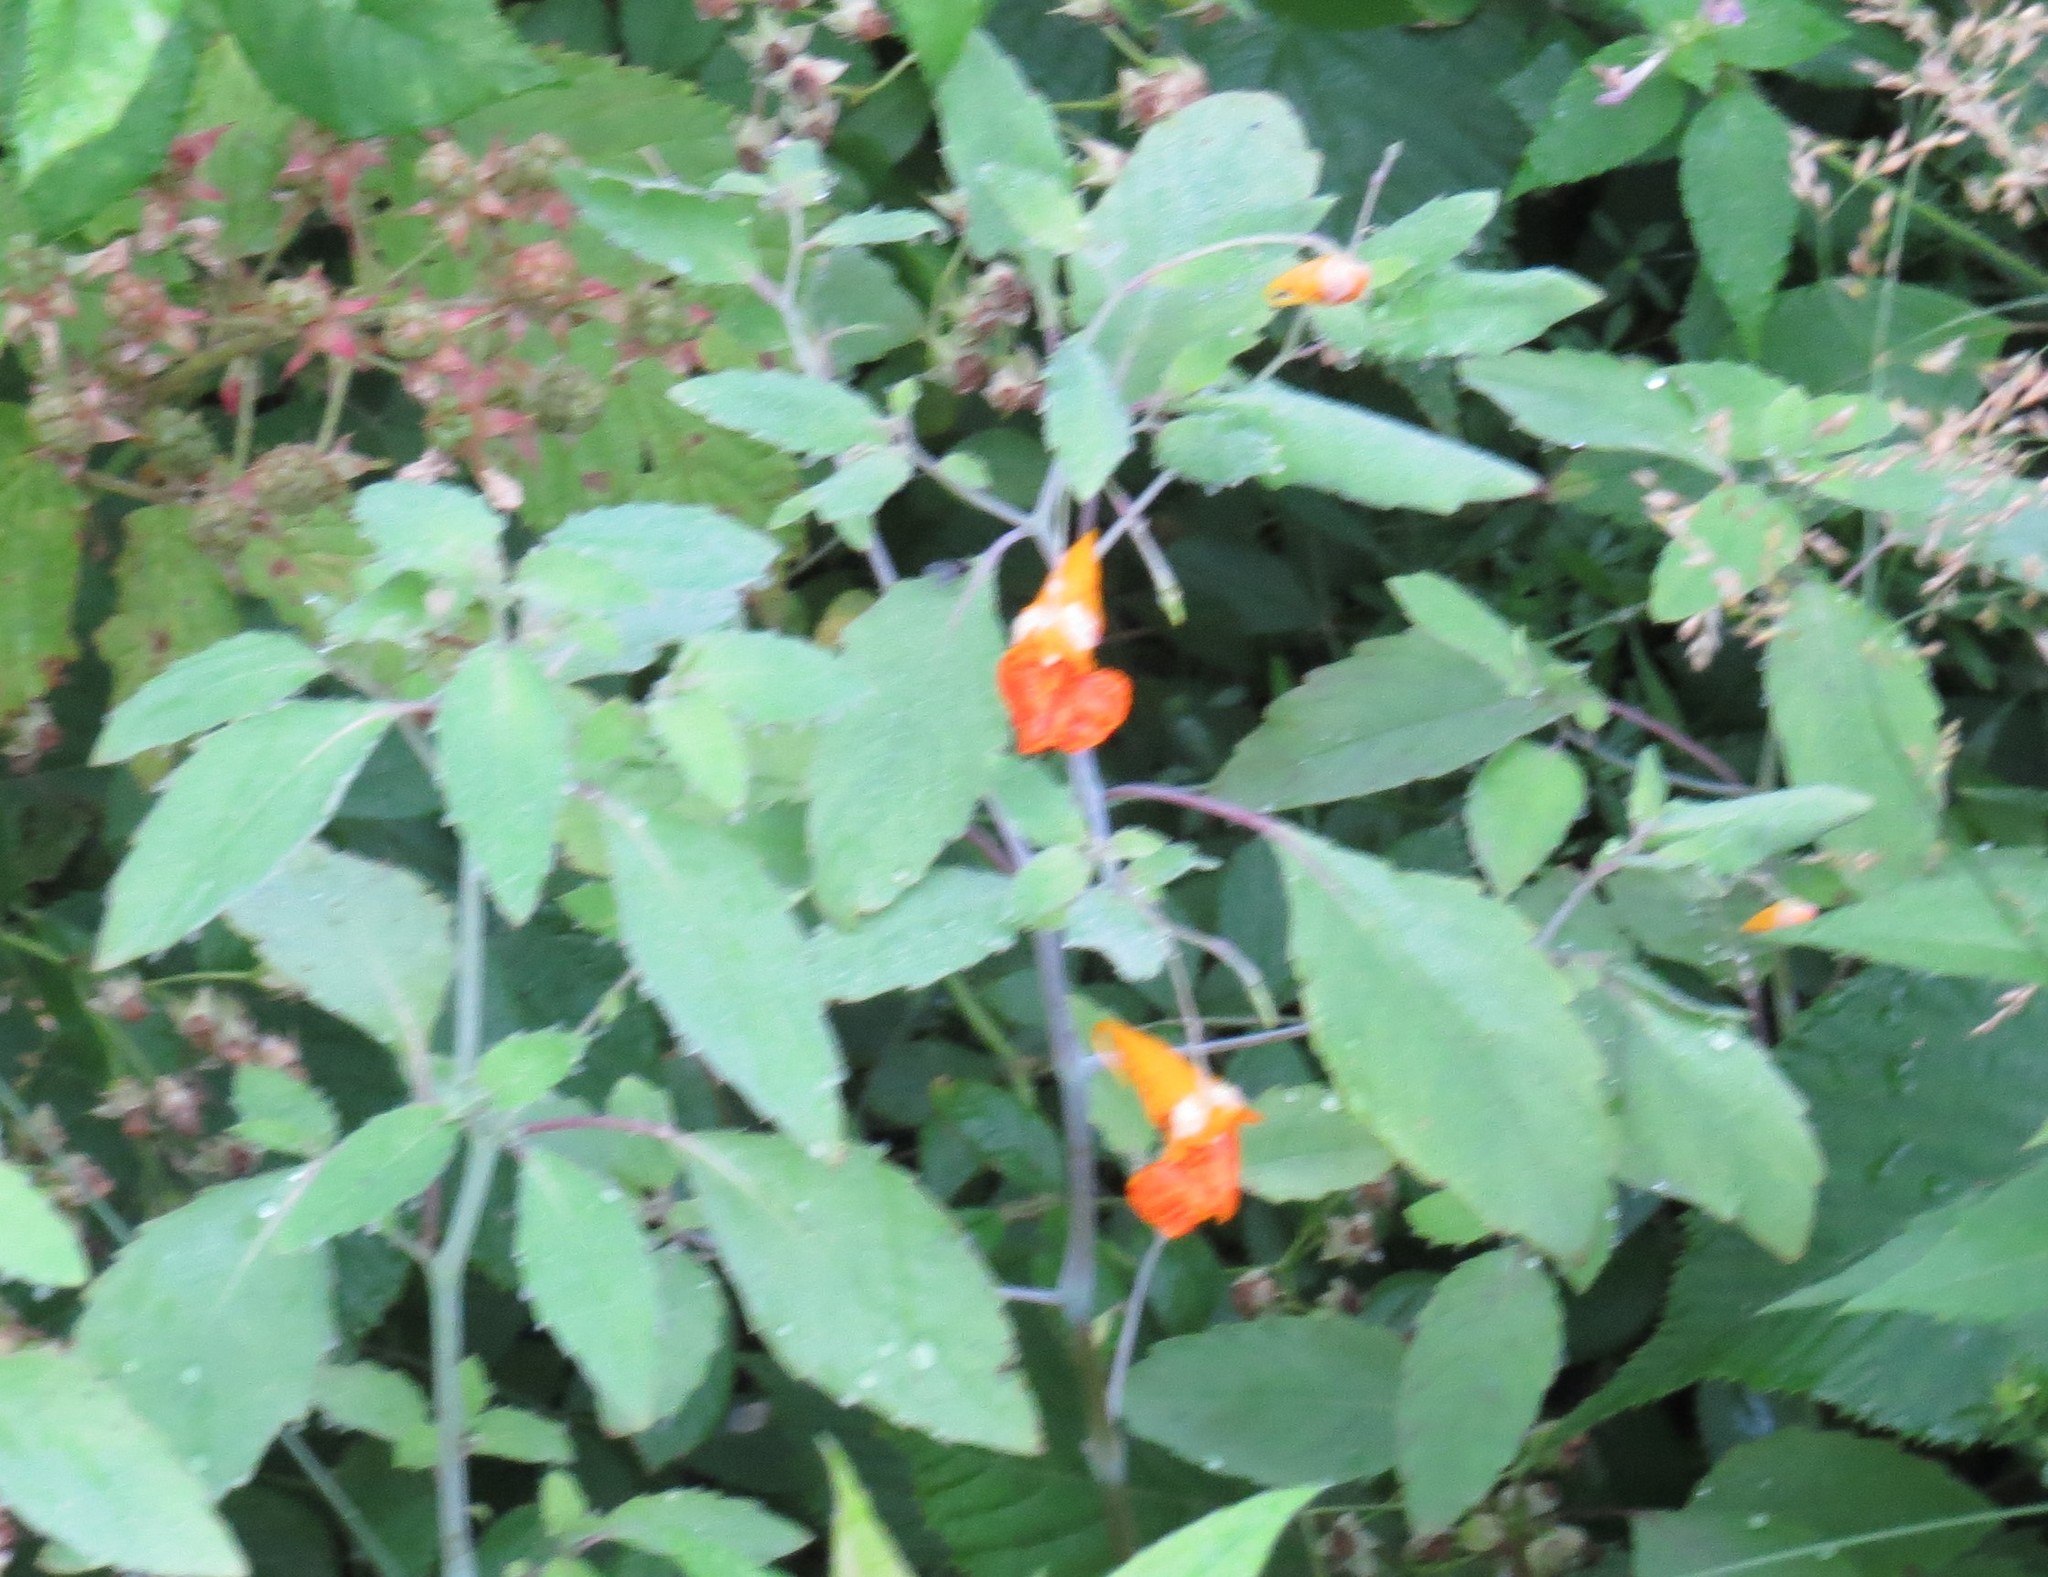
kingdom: Plantae
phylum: Tracheophyta
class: Magnoliopsida
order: Ericales
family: Balsaminaceae
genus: Impatiens
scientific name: Impatiens capensis
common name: Orange balsam
